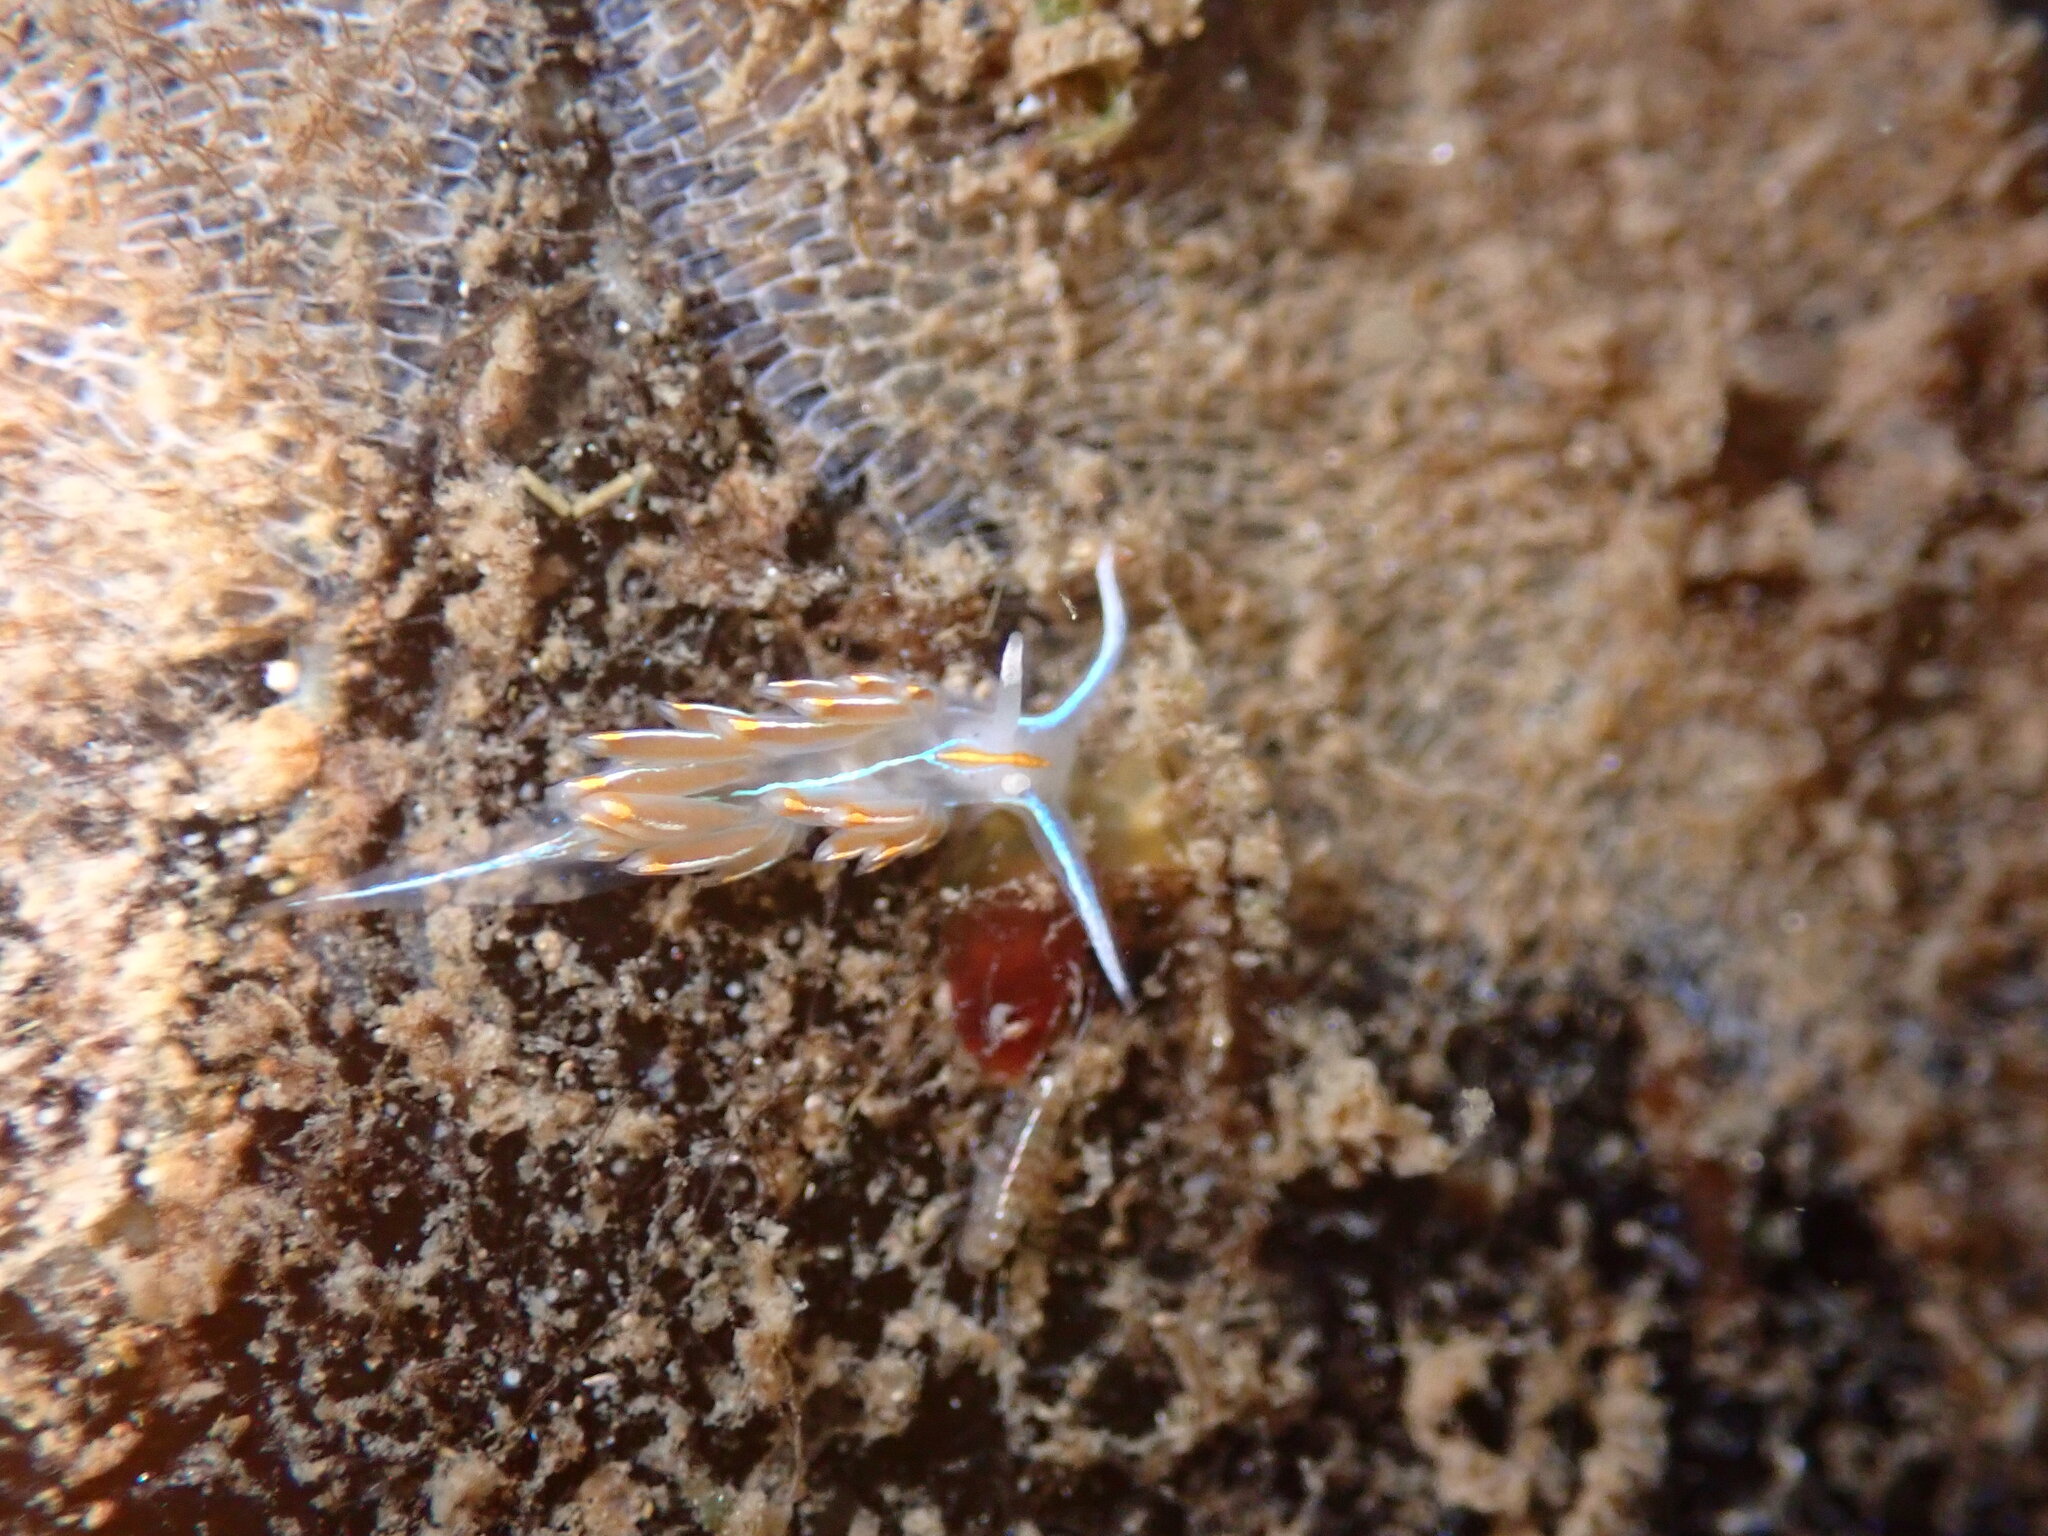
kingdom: Animalia
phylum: Mollusca
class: Gastropoda
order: Nudibranchia
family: Myrrhinidae
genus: Hermissenda
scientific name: Hermissenda crassicornis
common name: Hermissenda
